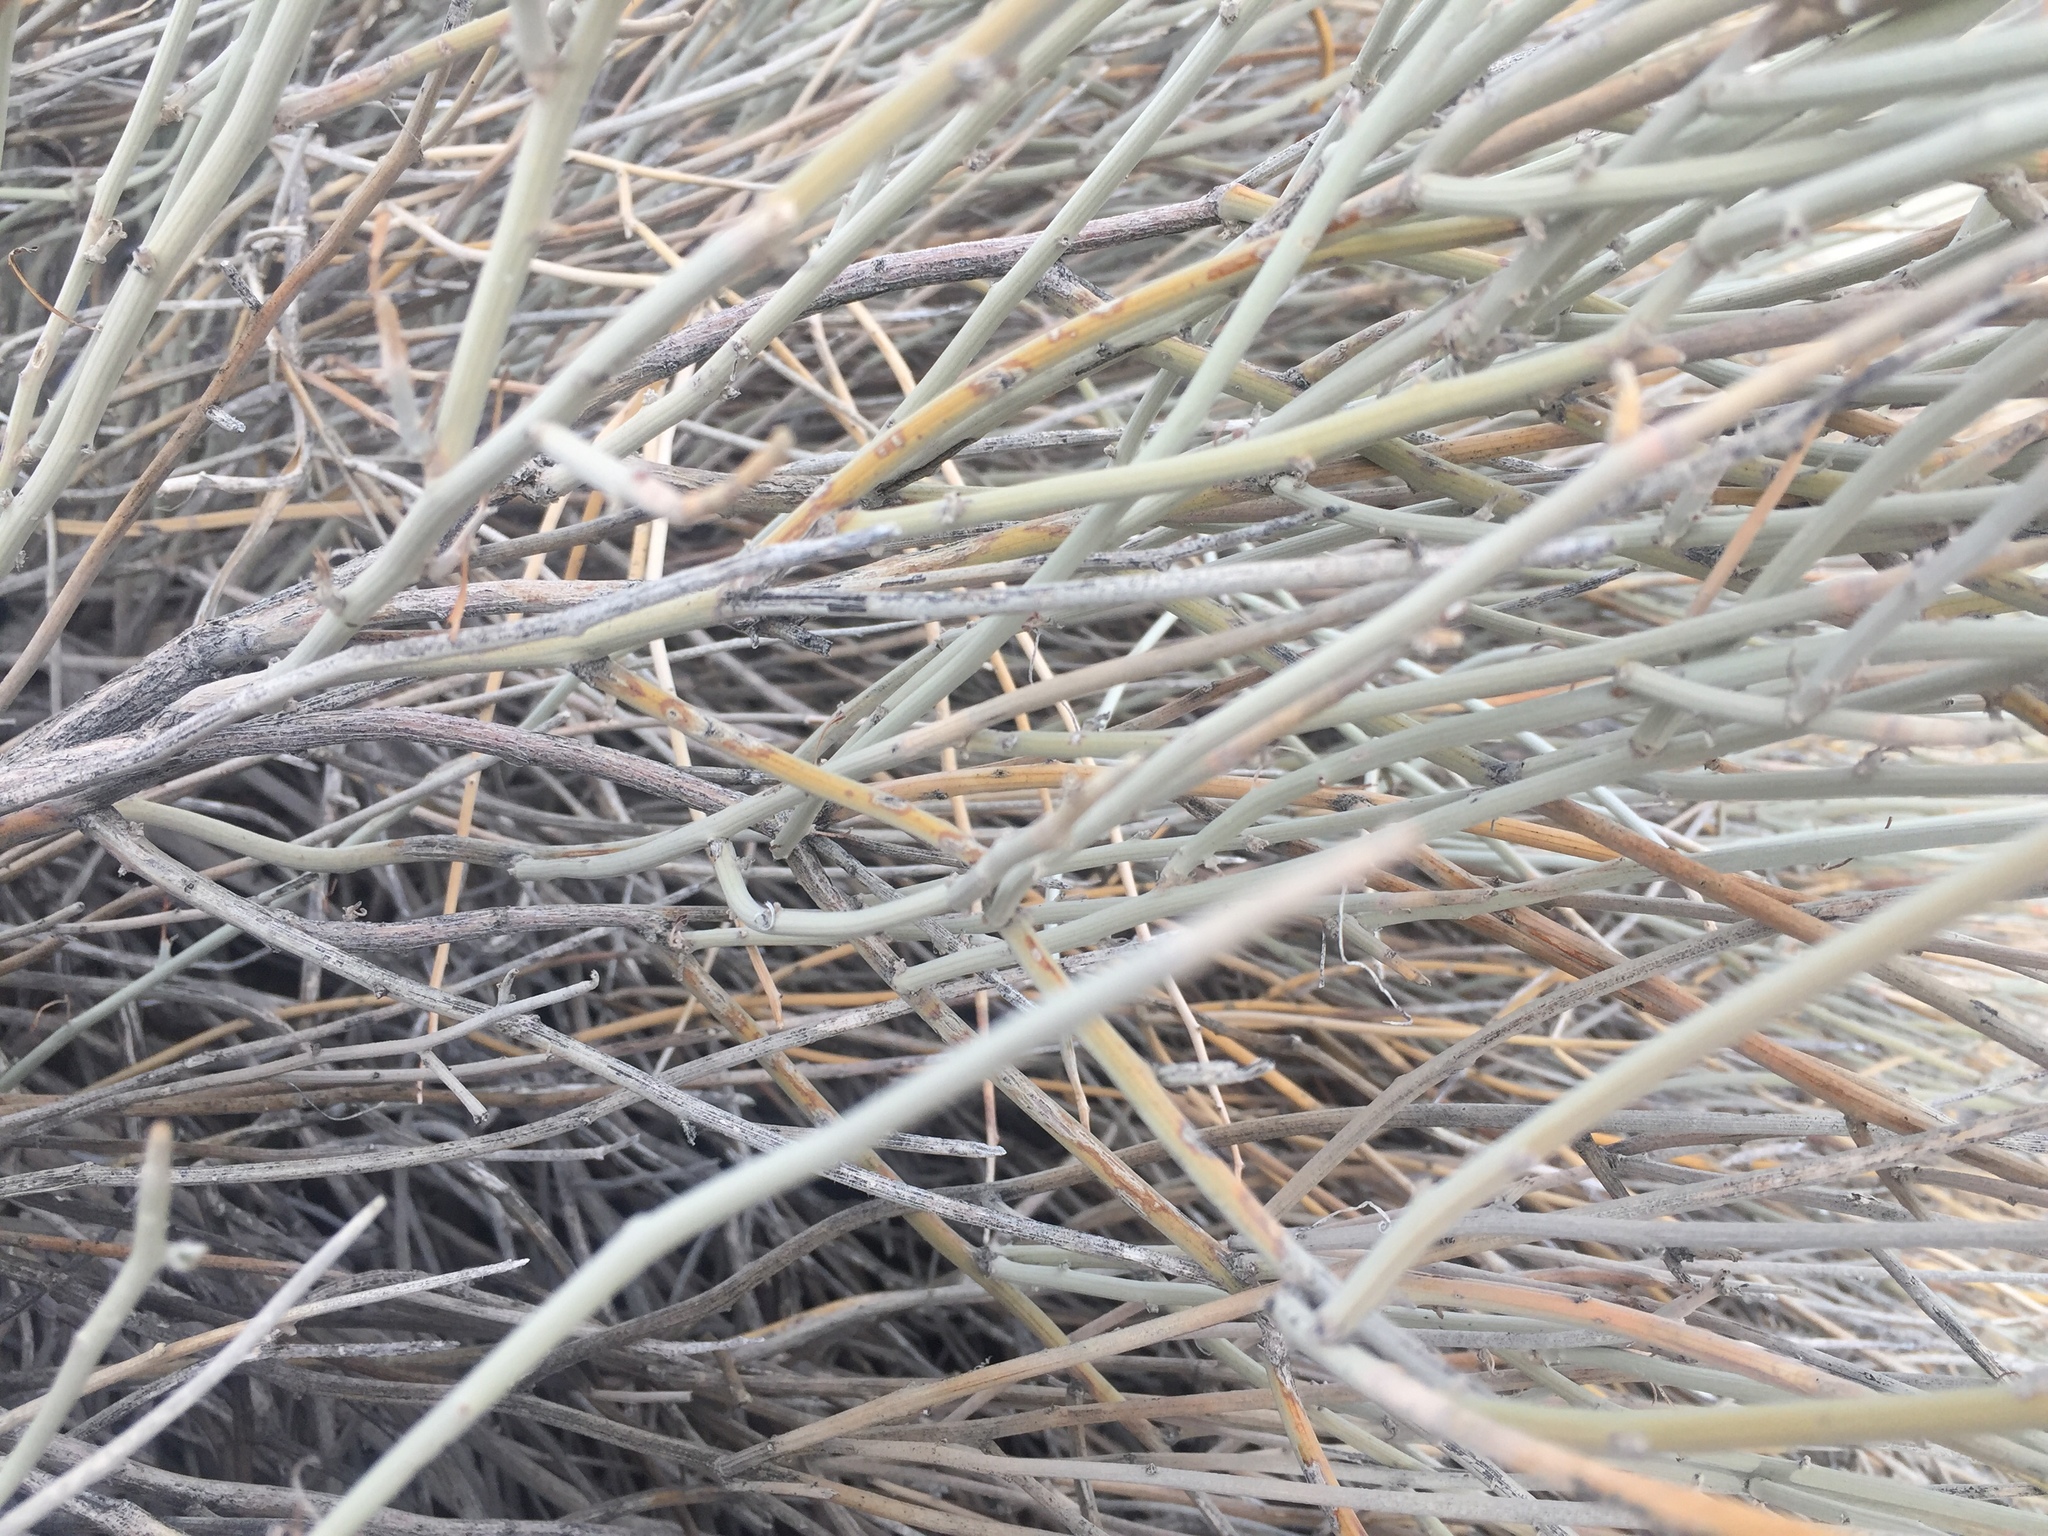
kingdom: Plantae
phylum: Tracheophyta
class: Magnoliopsida
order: Fabales
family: Fabaceae
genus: Senna
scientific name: Senna armata
